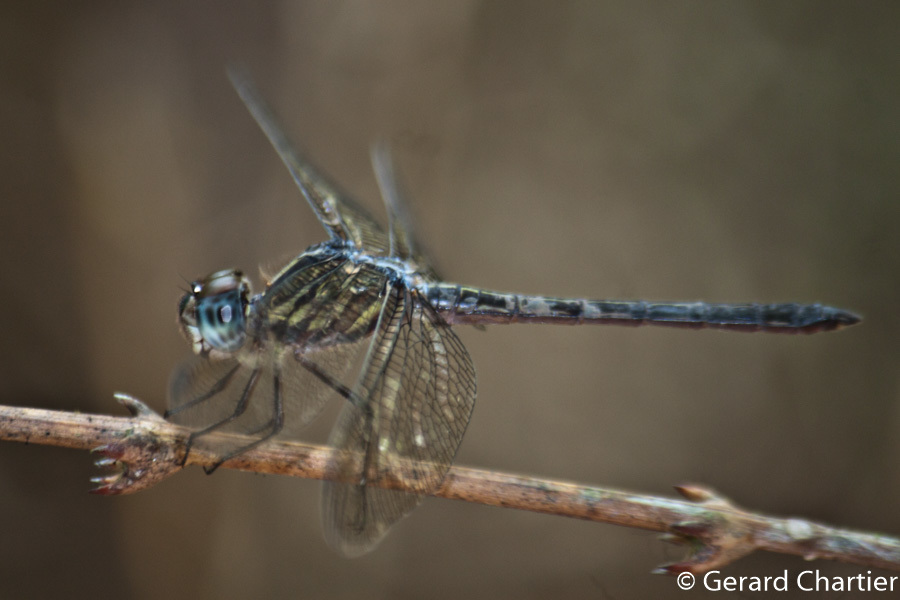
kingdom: Animalia
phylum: Arthropoda
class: Insecta
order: Odonata
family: Libellulidae
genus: Cratilla
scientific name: Cratilla lineata
